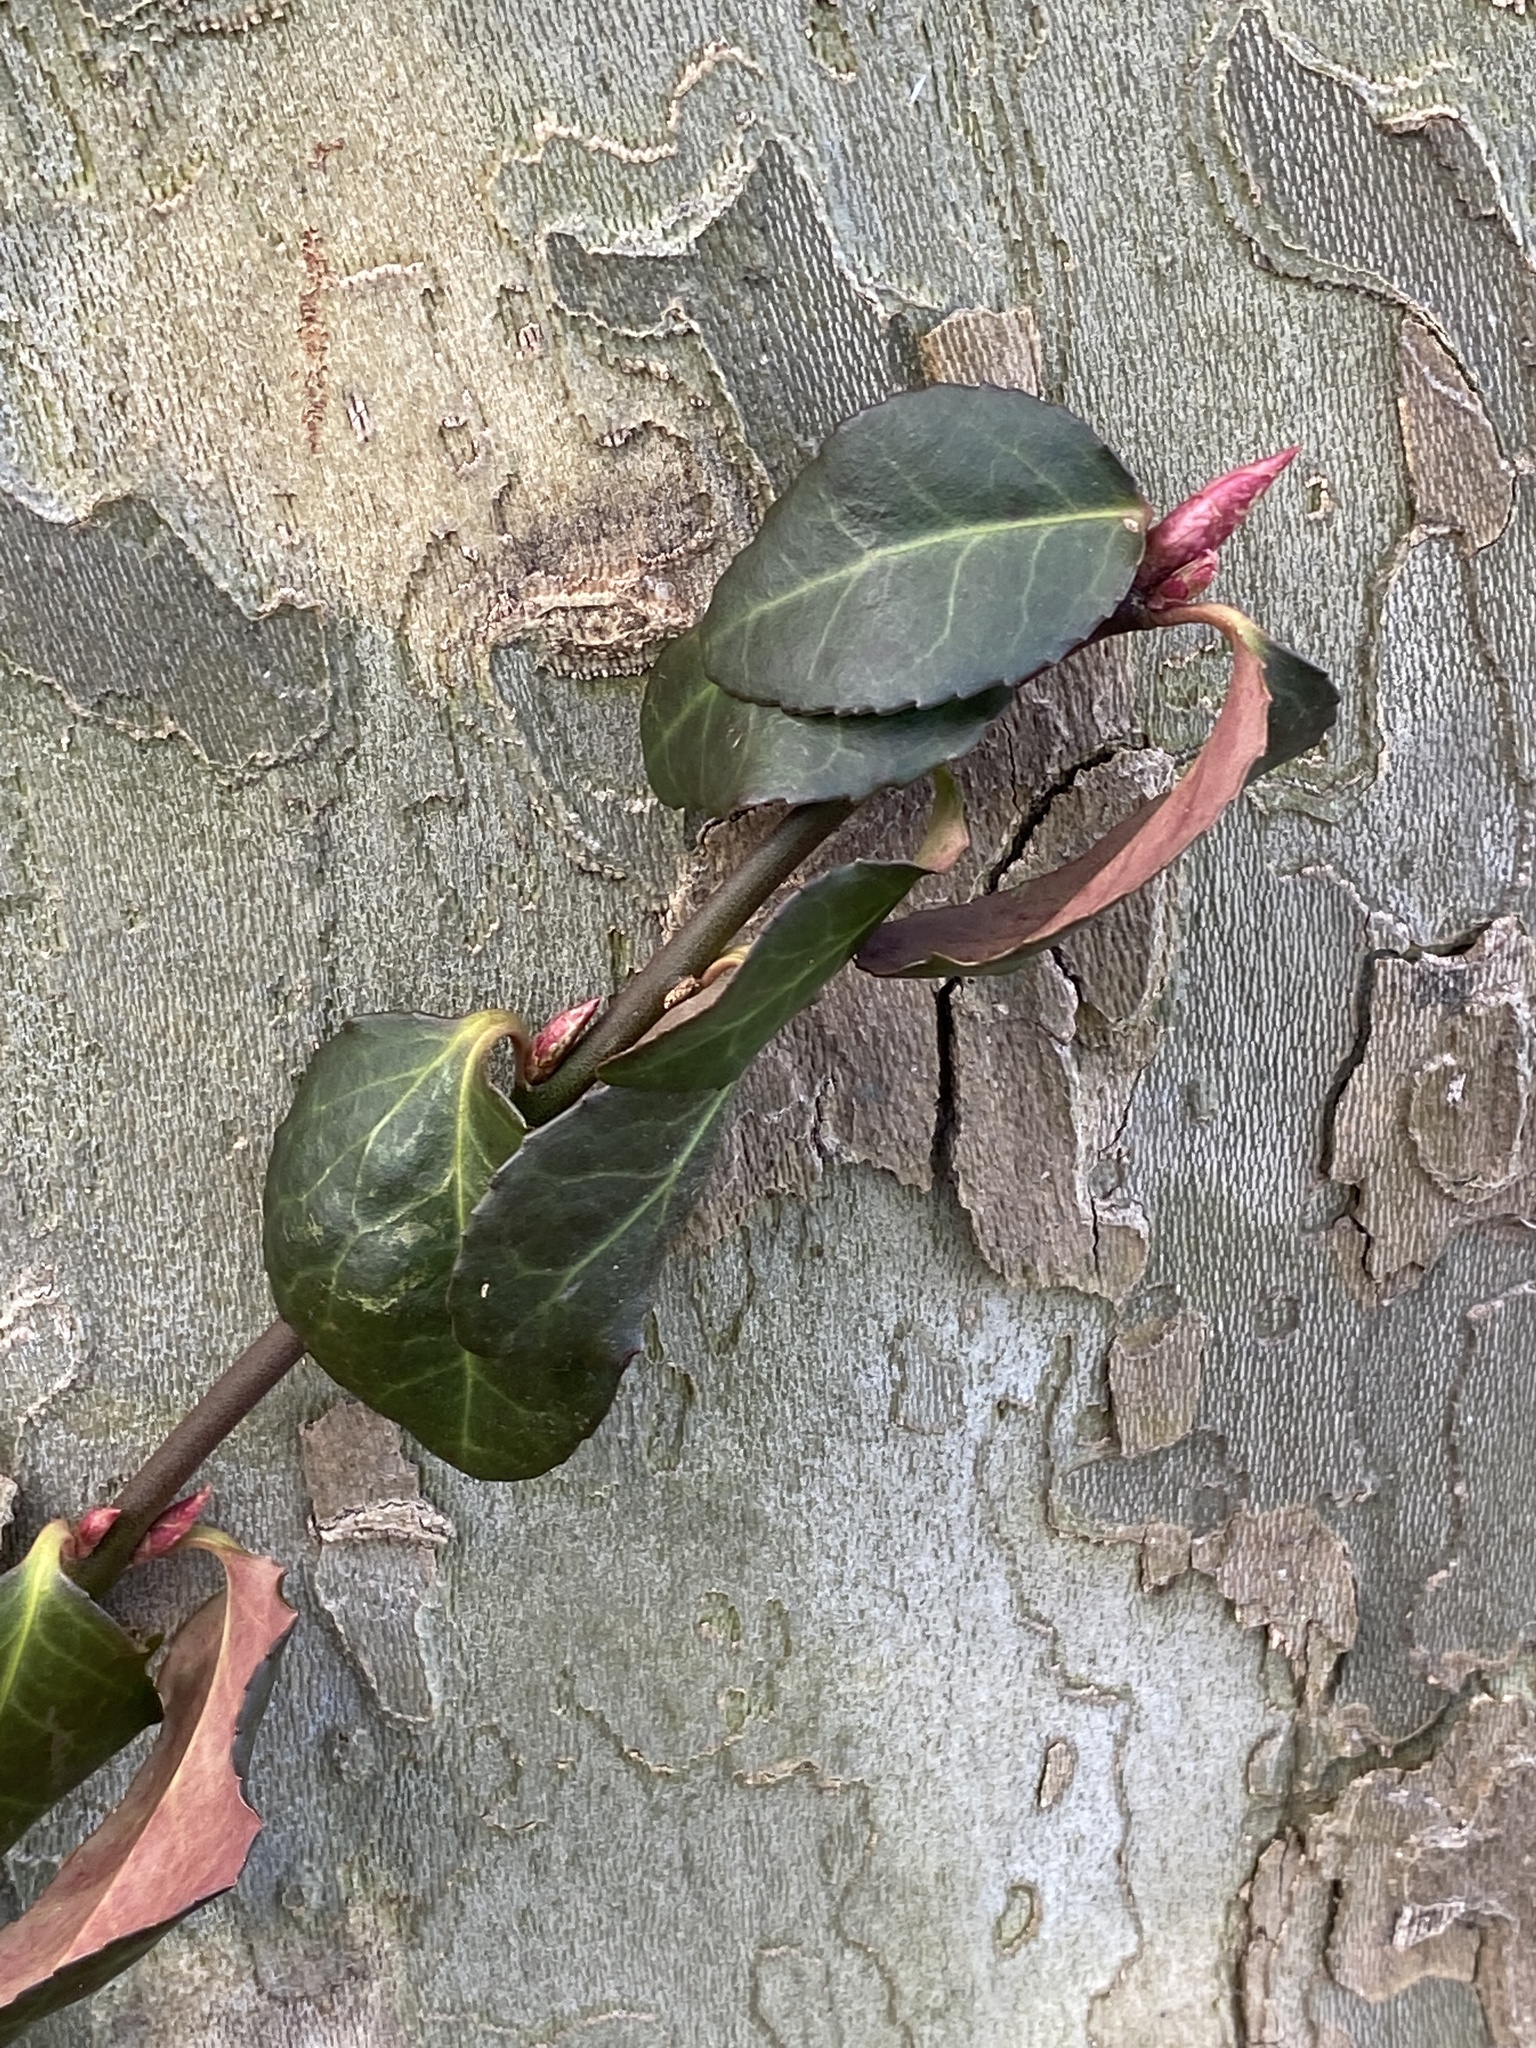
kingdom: Plantae
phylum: Tracheophyta
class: Magnoliopsida
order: Celastrales
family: Celastraceae
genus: Euonymus
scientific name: Euonymus fortunei
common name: Climbing euonymus
